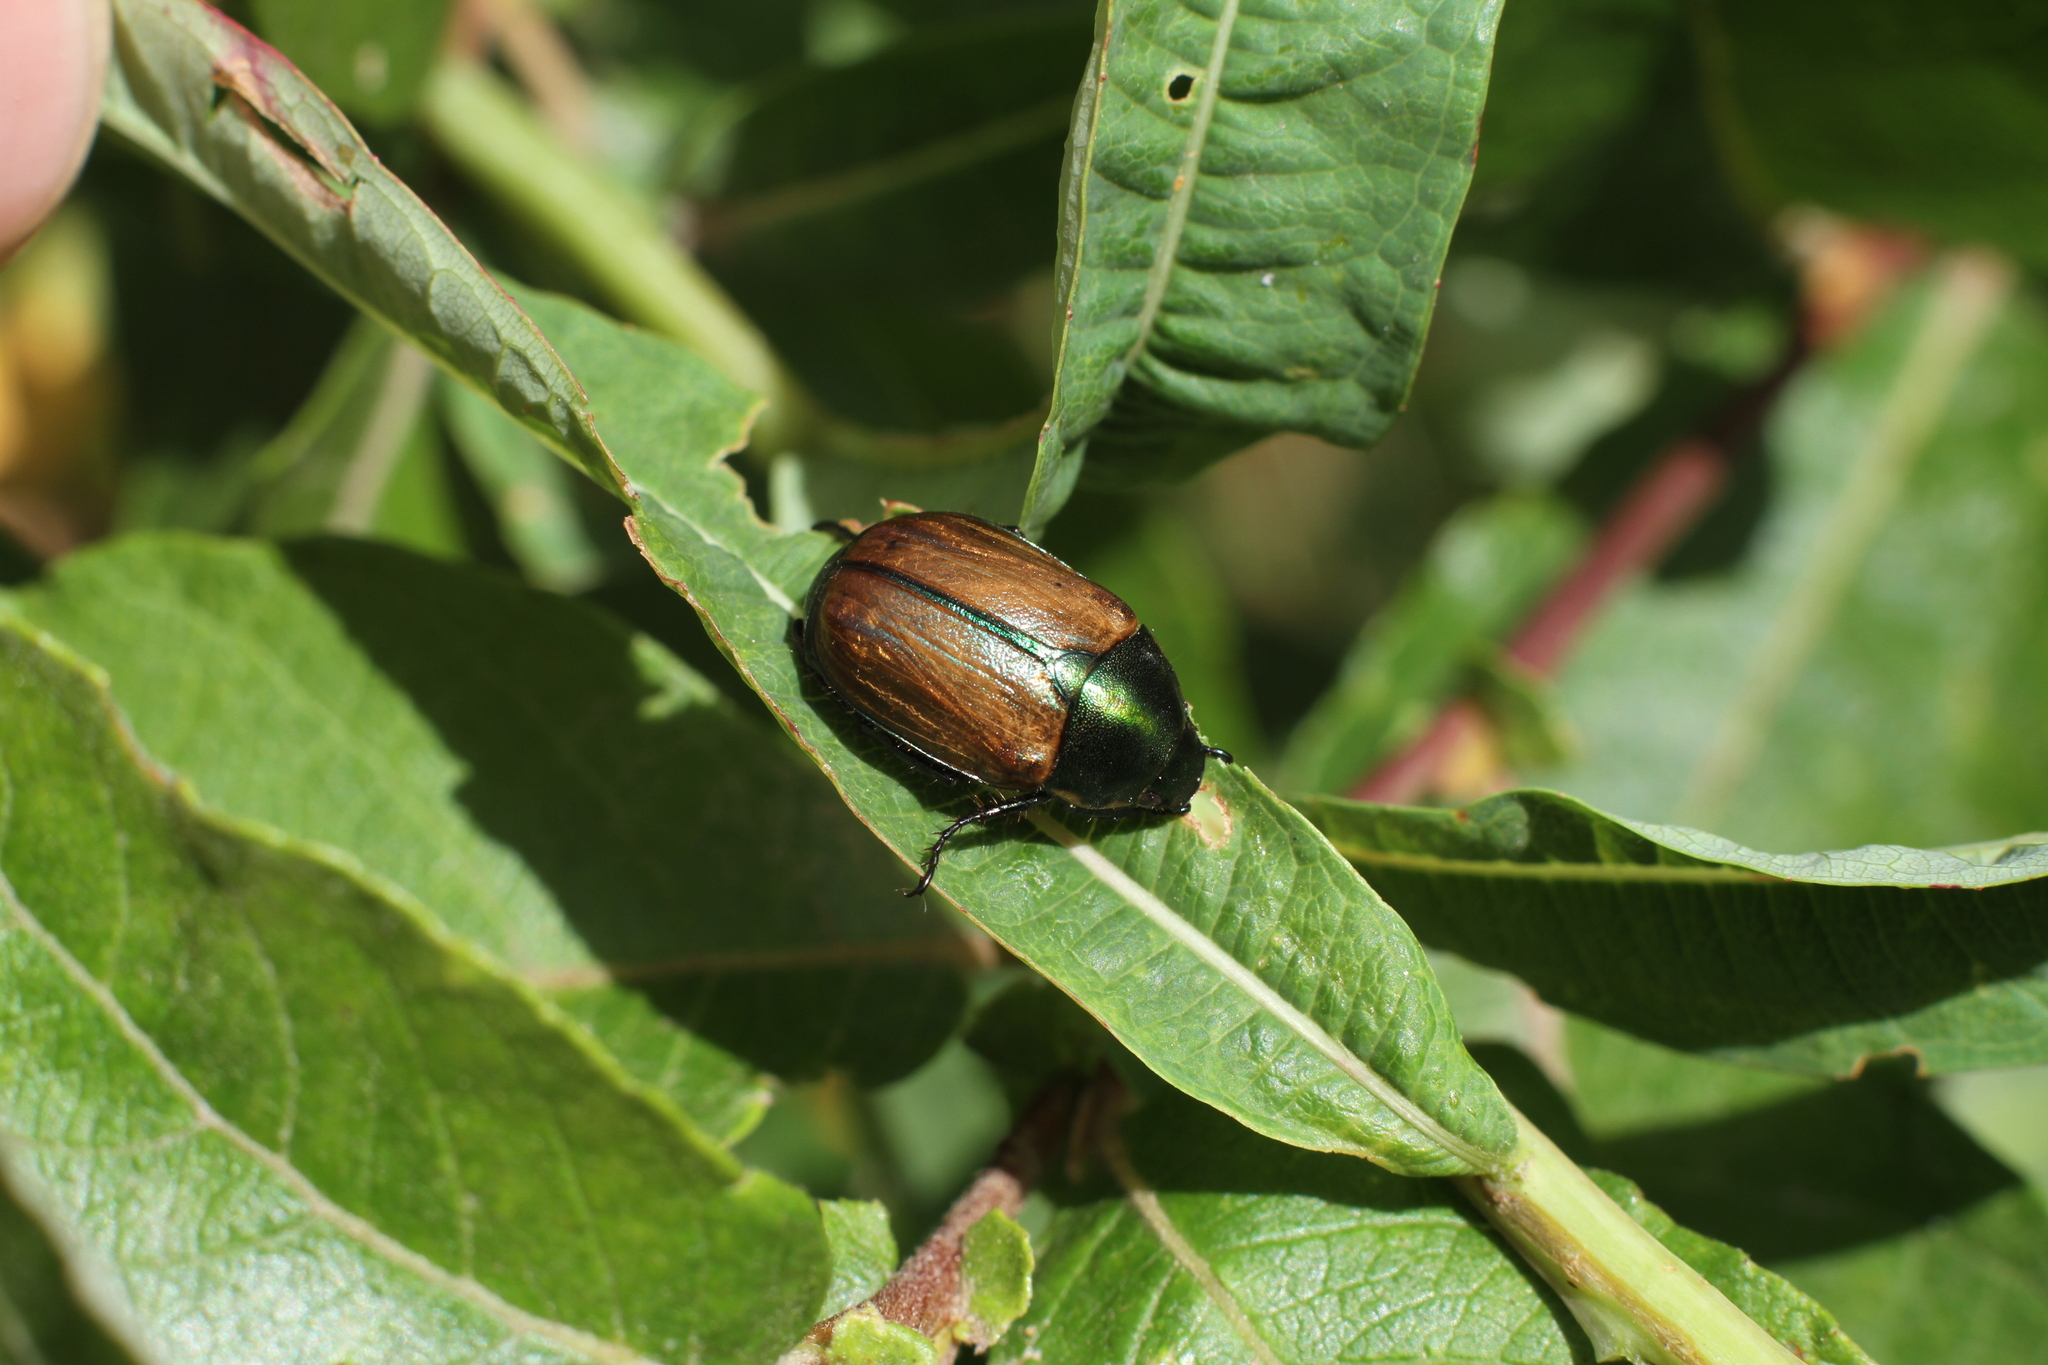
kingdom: Animalia
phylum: Arthropoda
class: Insecta
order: Coleoptera
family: Scarabaeidae
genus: Anomala
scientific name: Anomala dubia
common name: Dune chafer
